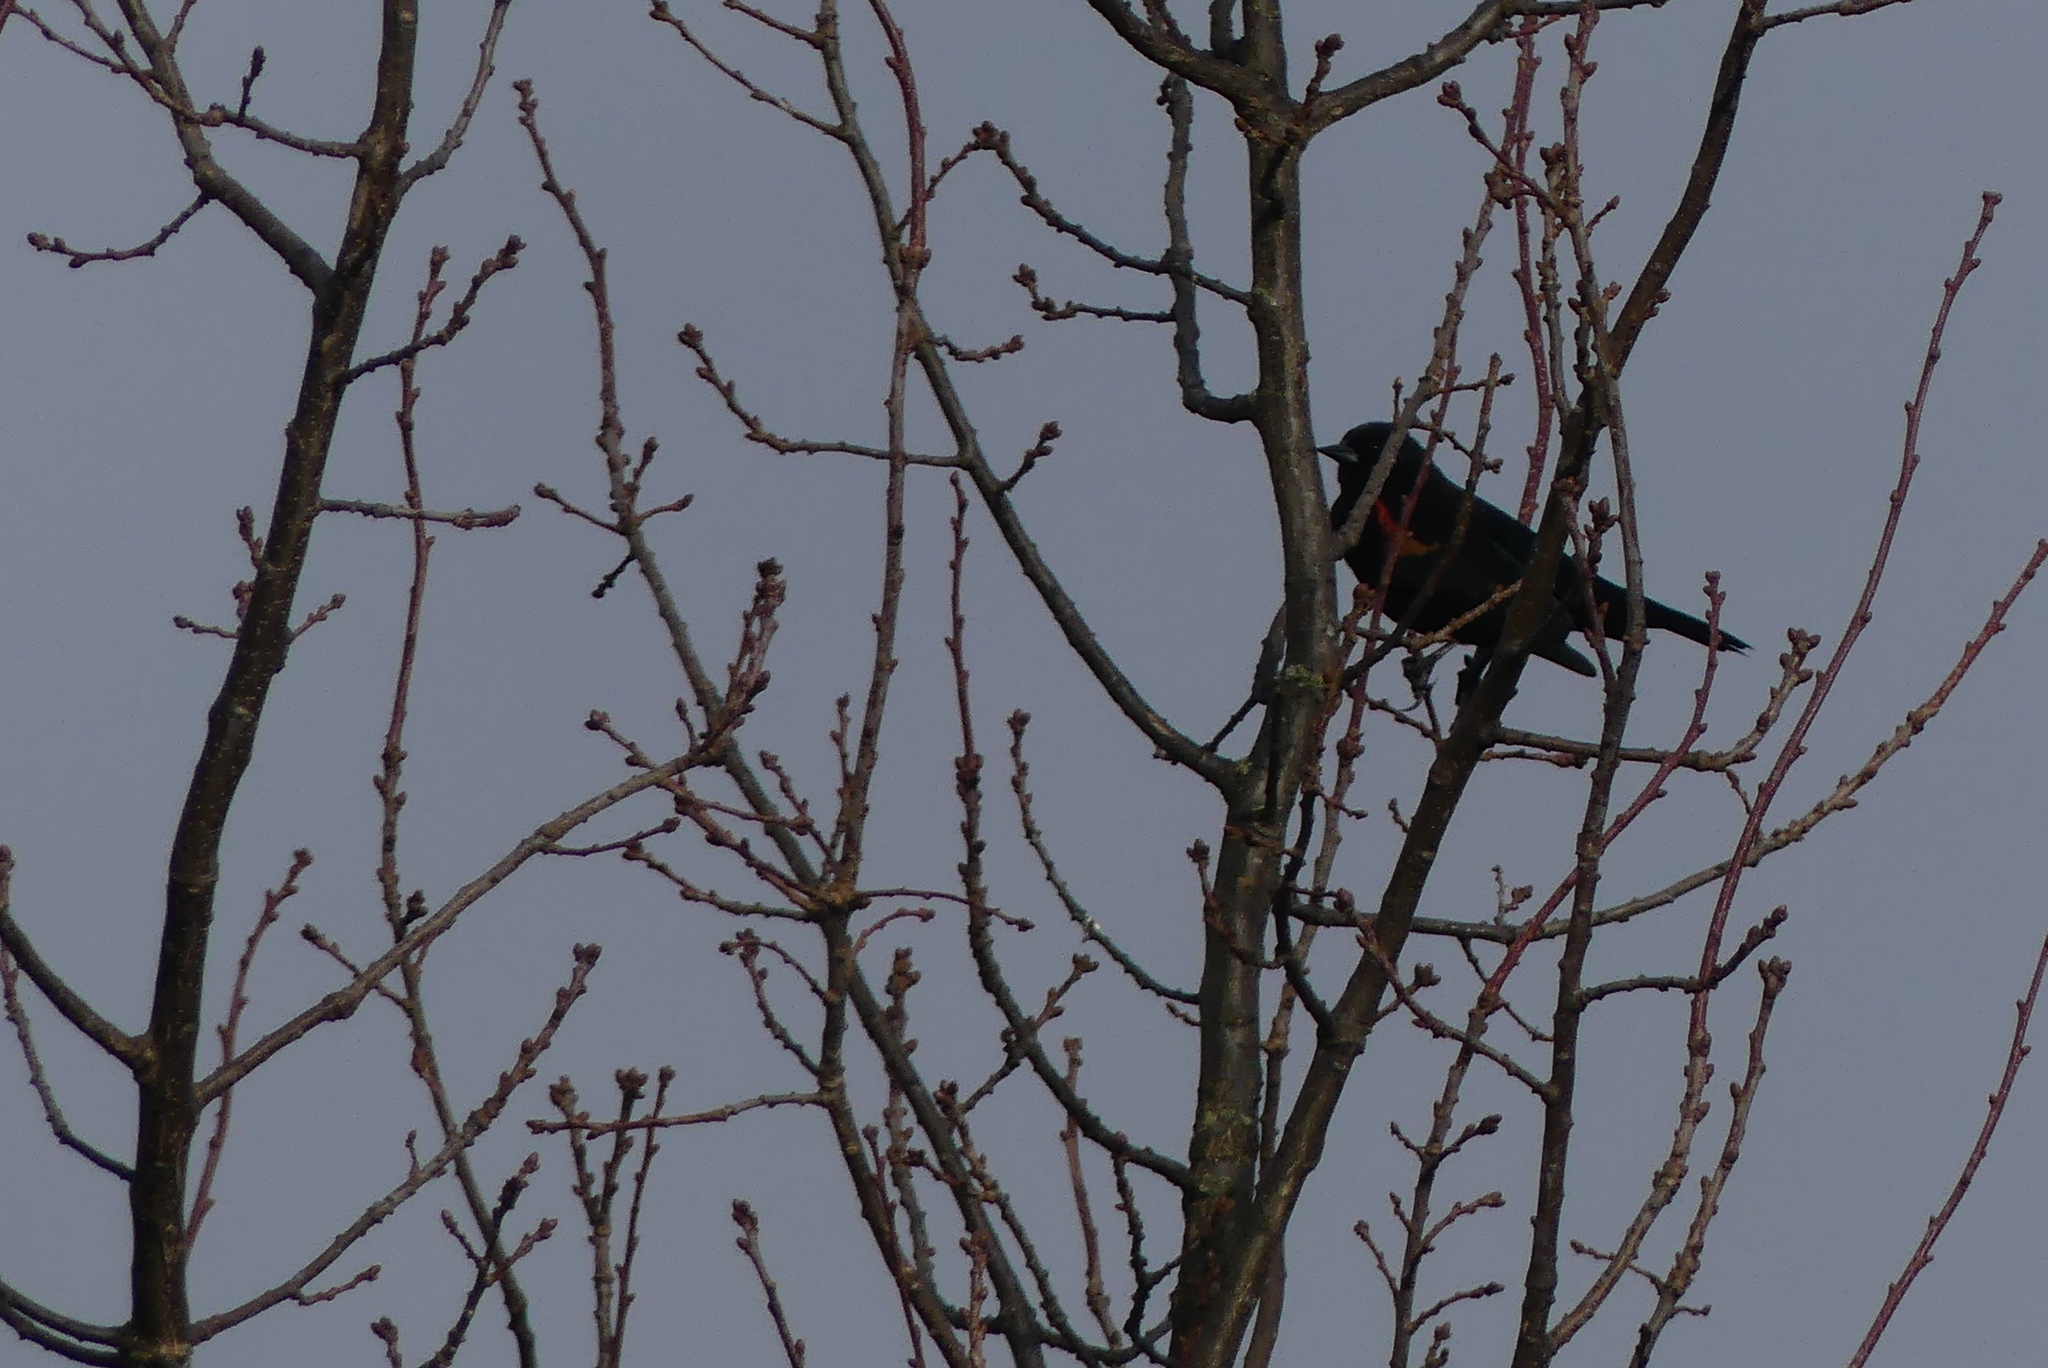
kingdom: Animalia
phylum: Chordata
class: Aves
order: Passeriformes
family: Icteridae
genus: Agelaius
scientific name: Agelaius phoeniceus
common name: Red-winged blackbird
